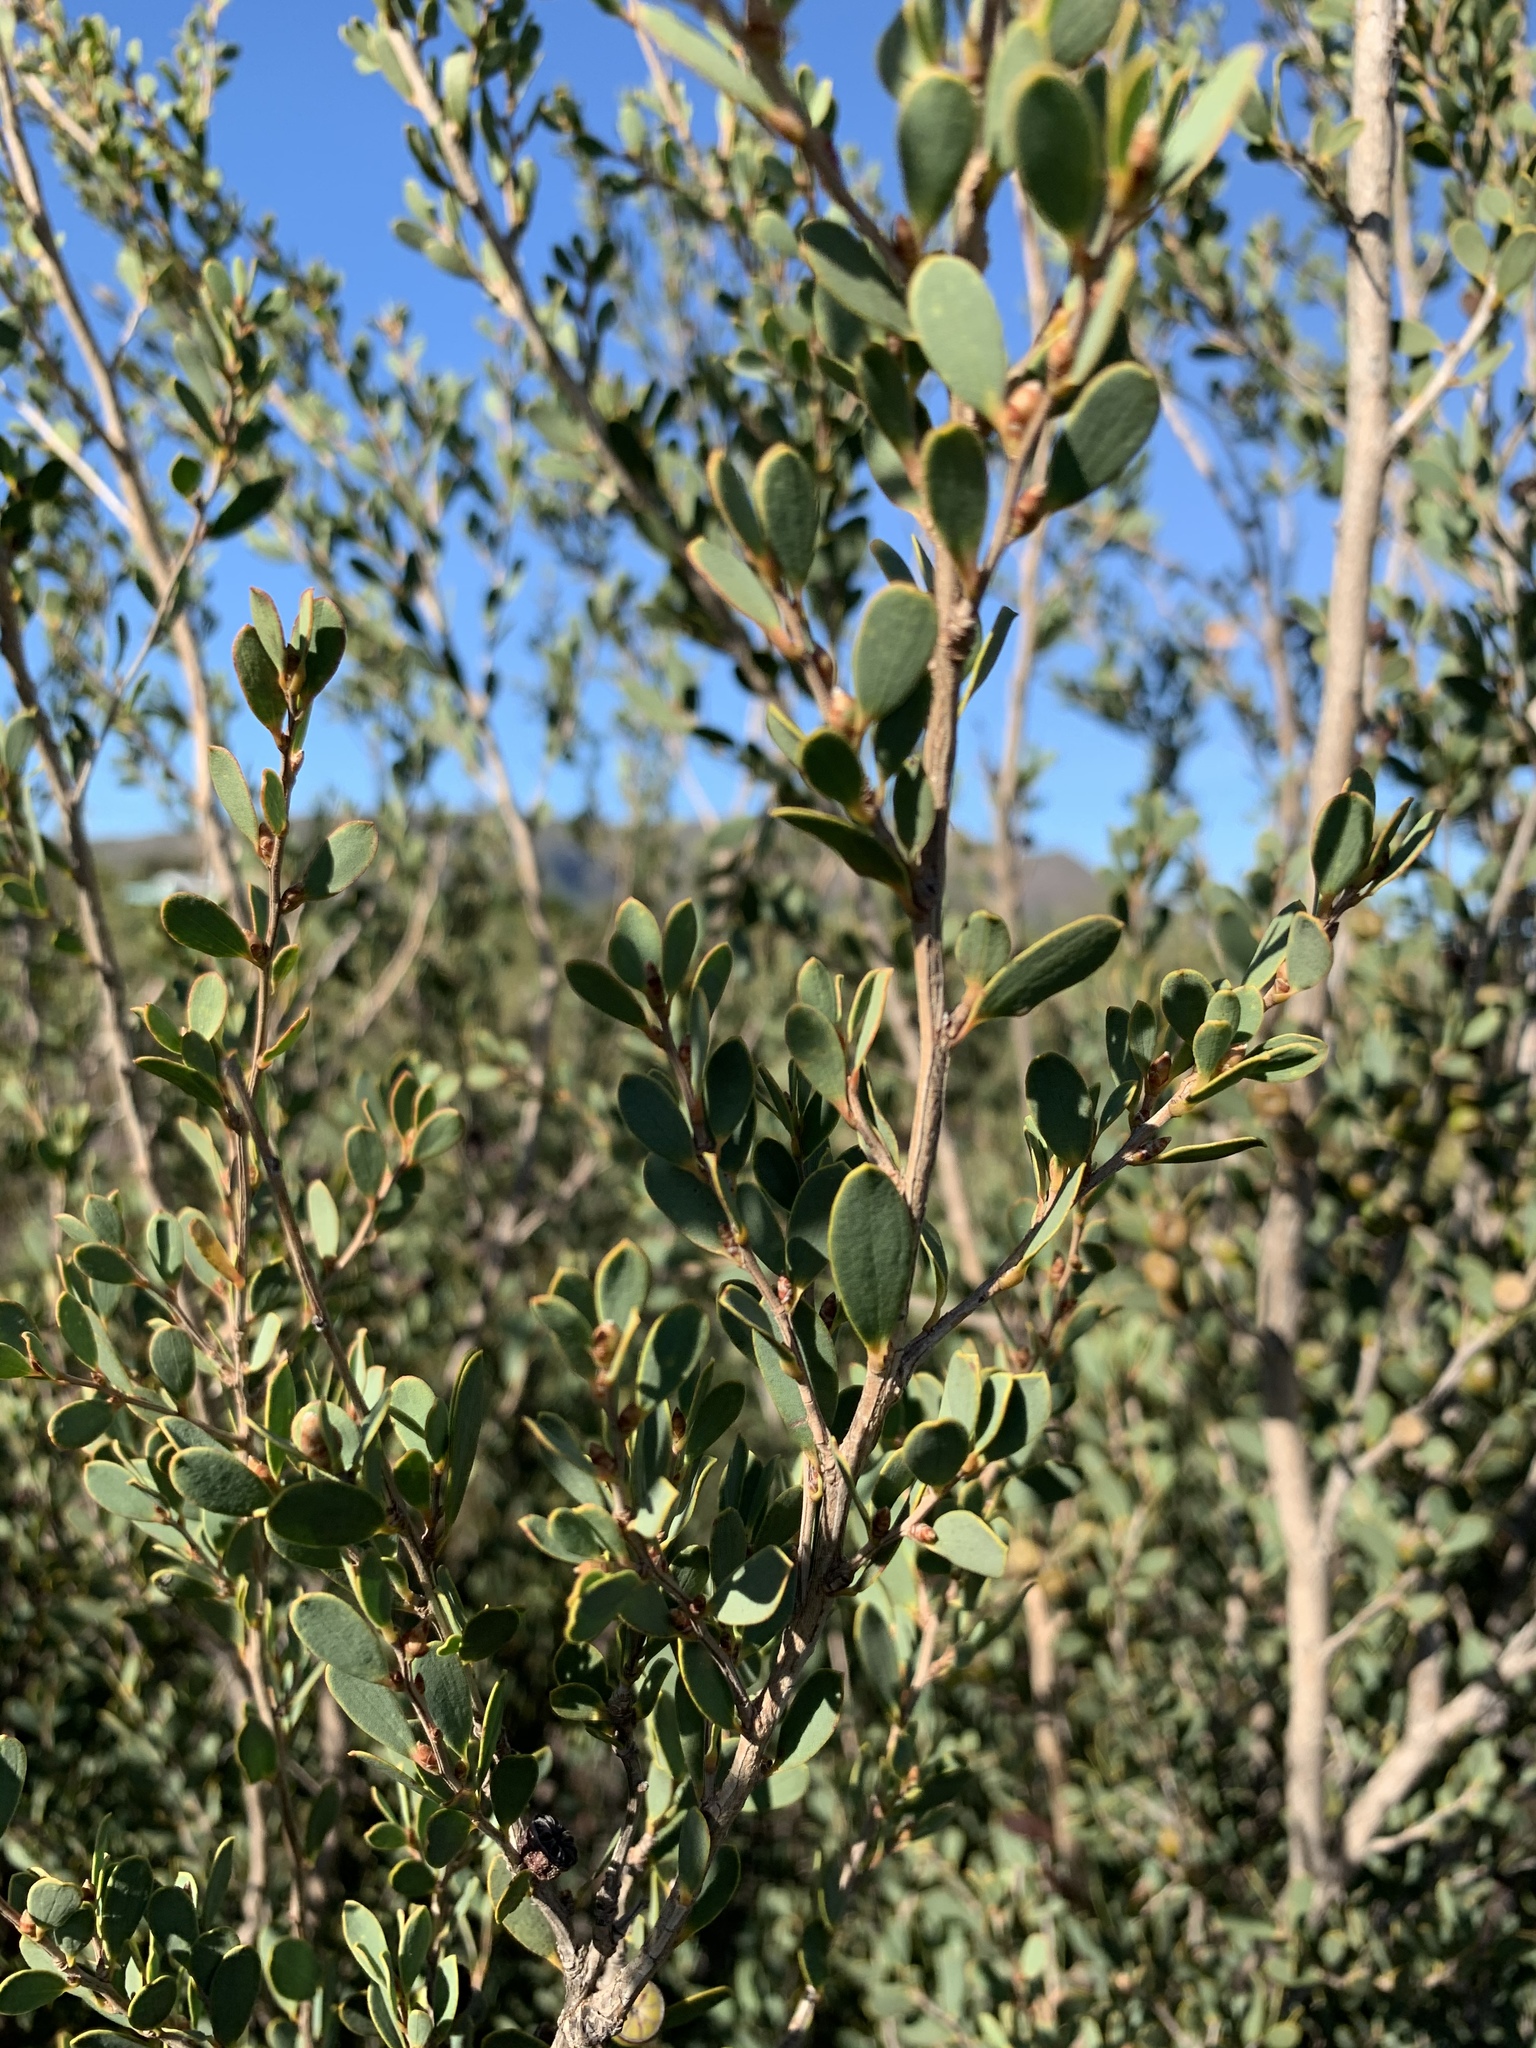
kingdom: Plantae
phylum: Tracheophyta
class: Magnoliopsida
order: Myrtales
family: Myrtaceae
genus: Leptospermum
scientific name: Leptospermum laevigatum
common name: Australian teatree
